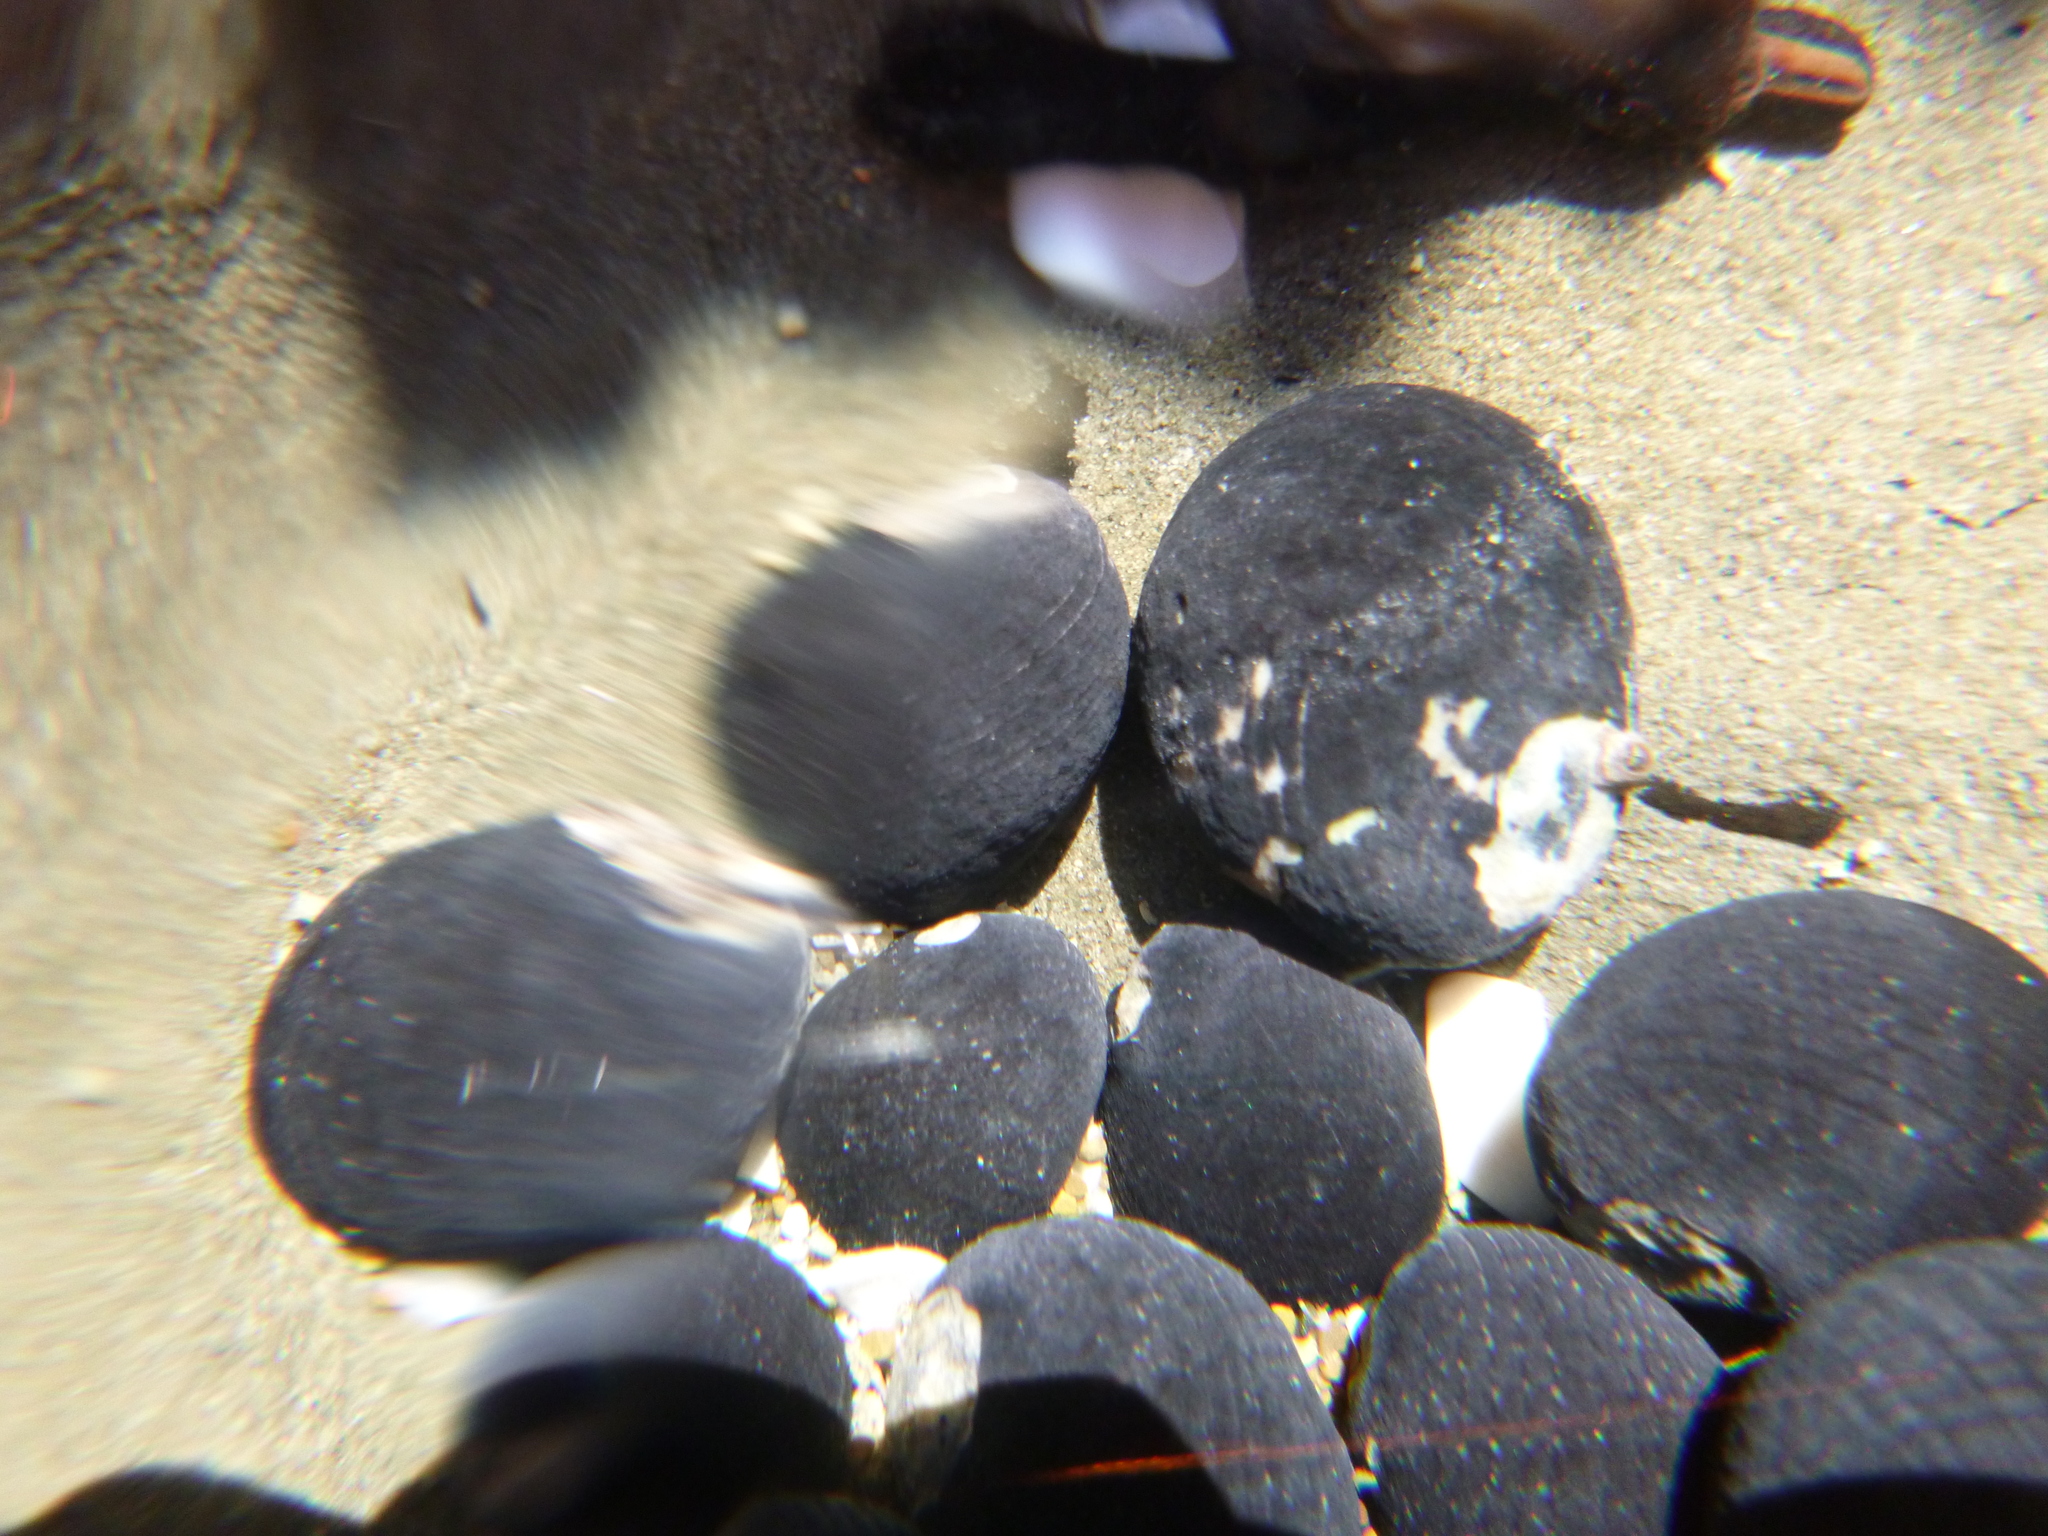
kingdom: Animalia
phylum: Mollusca
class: Gastropoda
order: Cycloneritida
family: Neritidae
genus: Nerita
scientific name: Nerita melanotragus
